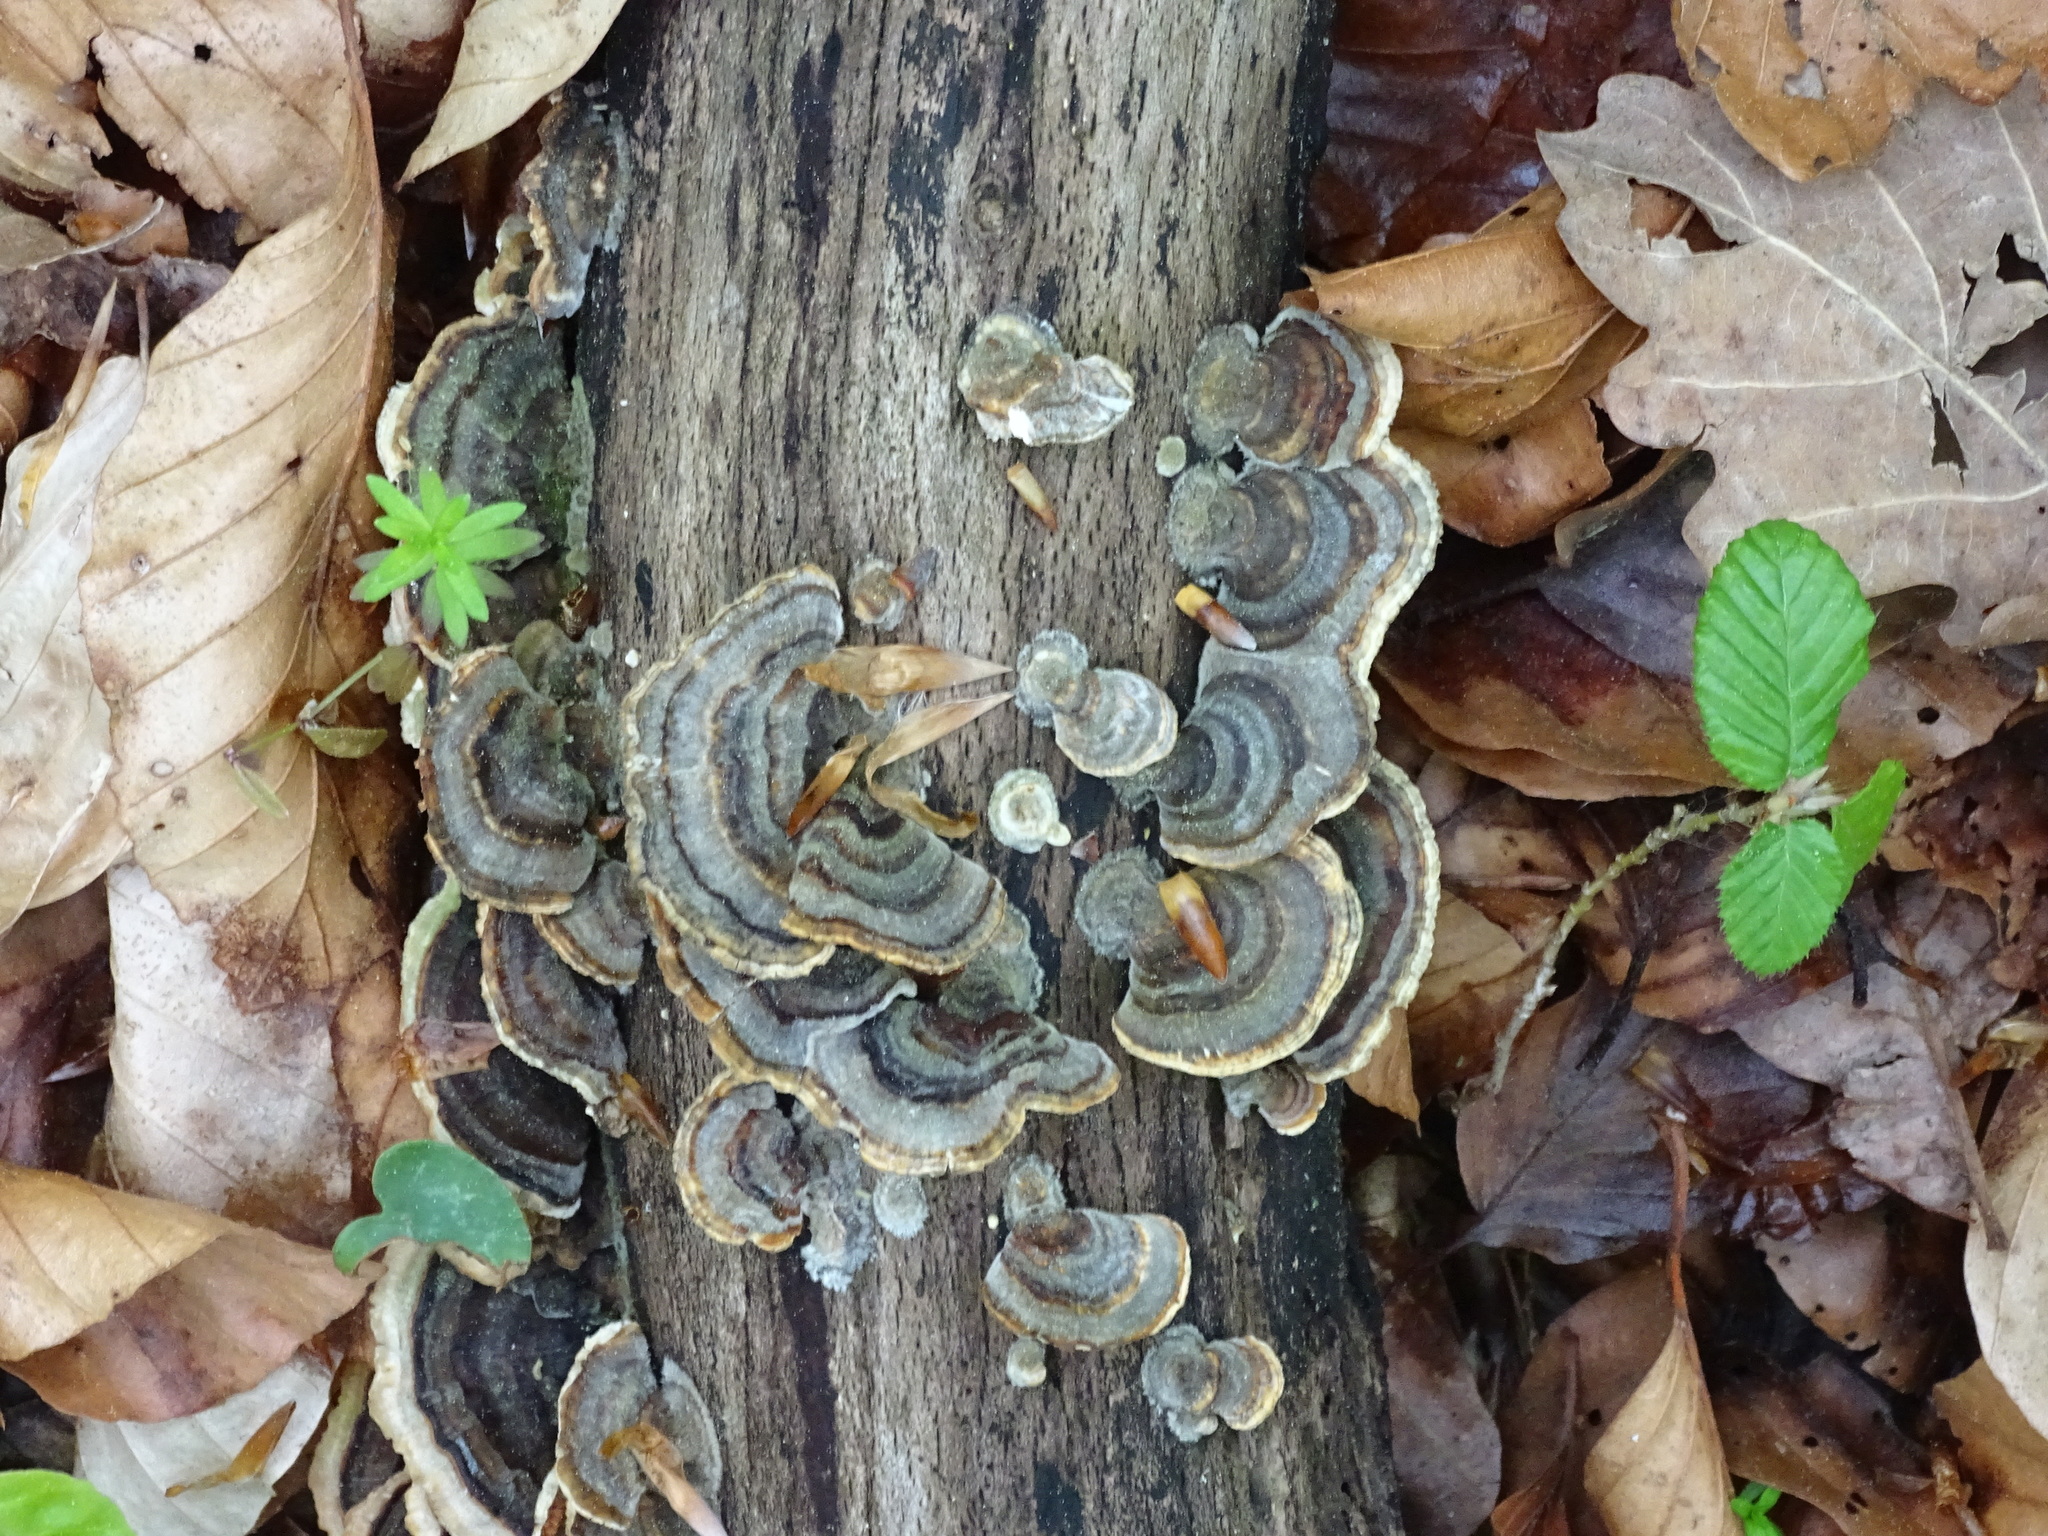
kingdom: Fungi
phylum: Basidiomycota
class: Agaricomycetes
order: Polyporales
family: Polyporaceae
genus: Trametes
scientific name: Trametes versicolor
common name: Turkeytail
